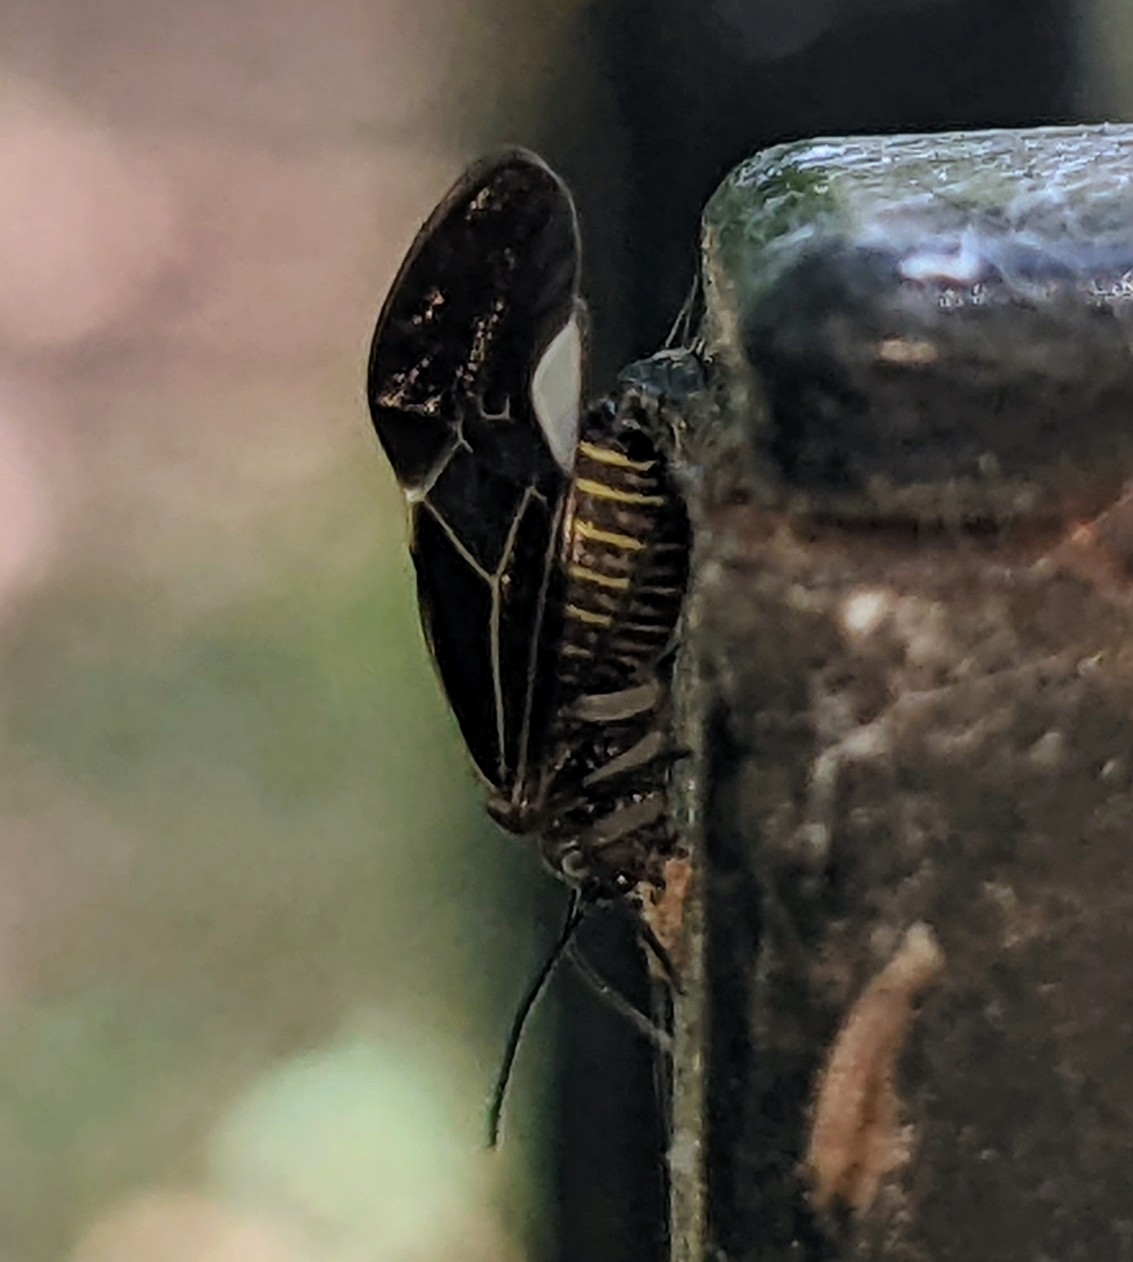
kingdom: Animalia
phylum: Arthropoda
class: Insecta
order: Psocodea
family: Psocidae
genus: Cerastipsocus
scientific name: Cerastipsocus venosus
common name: Tree cattle
